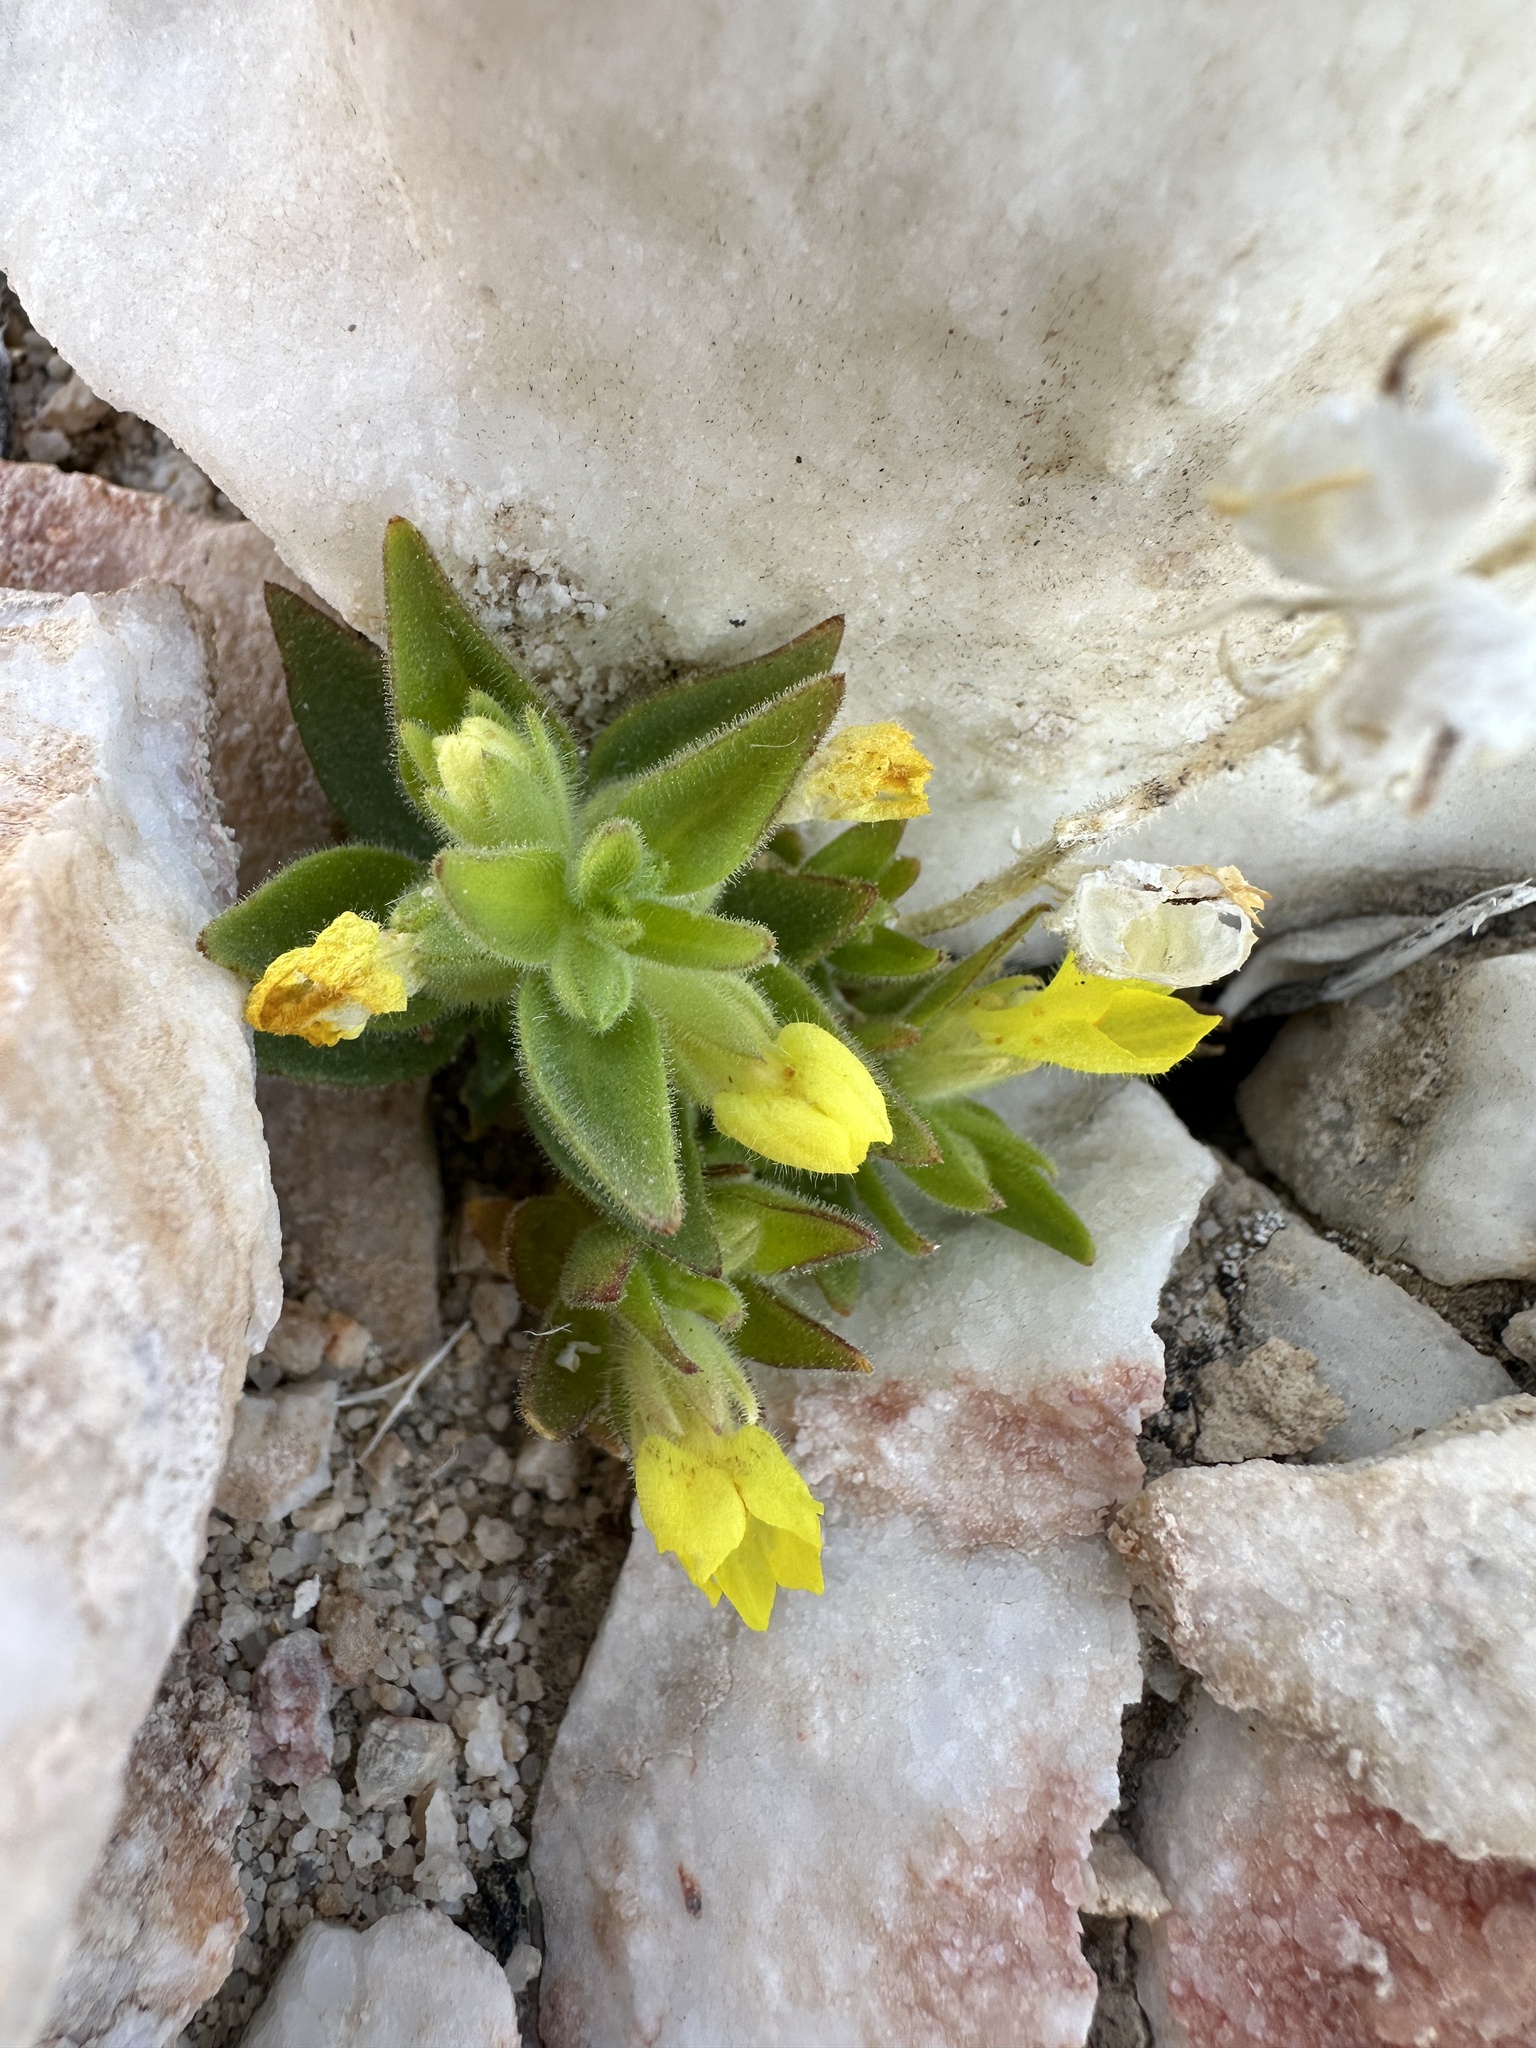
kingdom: Plantae
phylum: Tracheophyta
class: Magnoliopsida
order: Lamiales
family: Plantaginaceae
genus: Mohavea
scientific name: Mohavea breviflora
